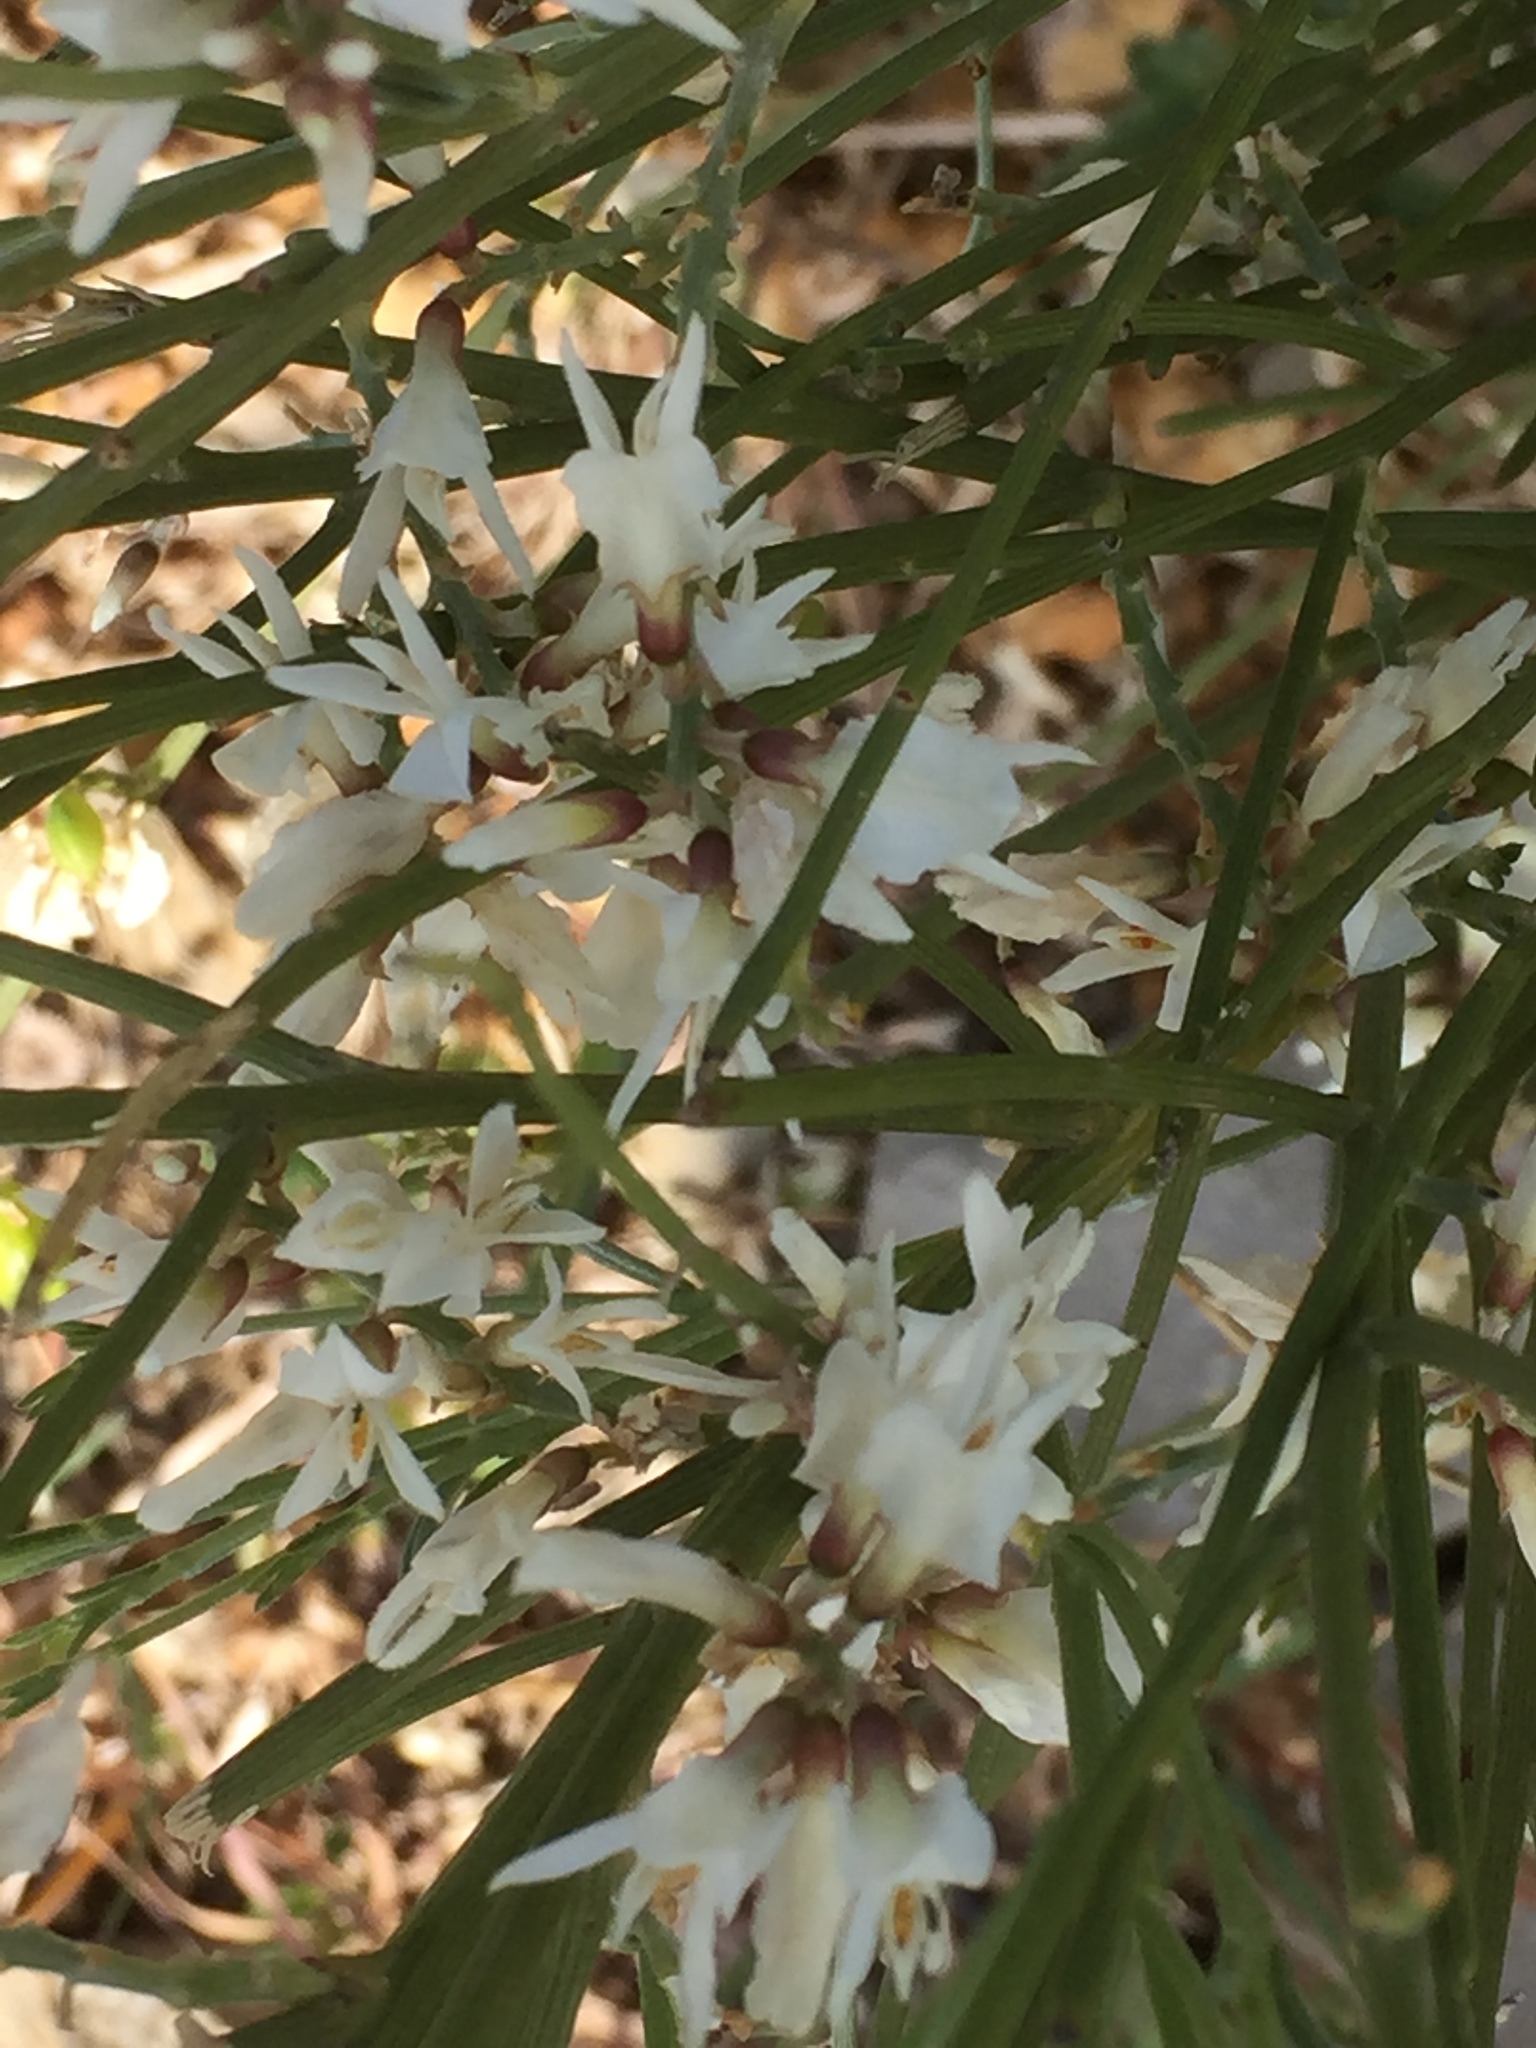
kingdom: Plantae
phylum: Tracheophyta
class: Magnoliopsida
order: Fabales
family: Fabaceae
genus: Retama
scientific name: Retama monosperma
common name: Bridal broom
